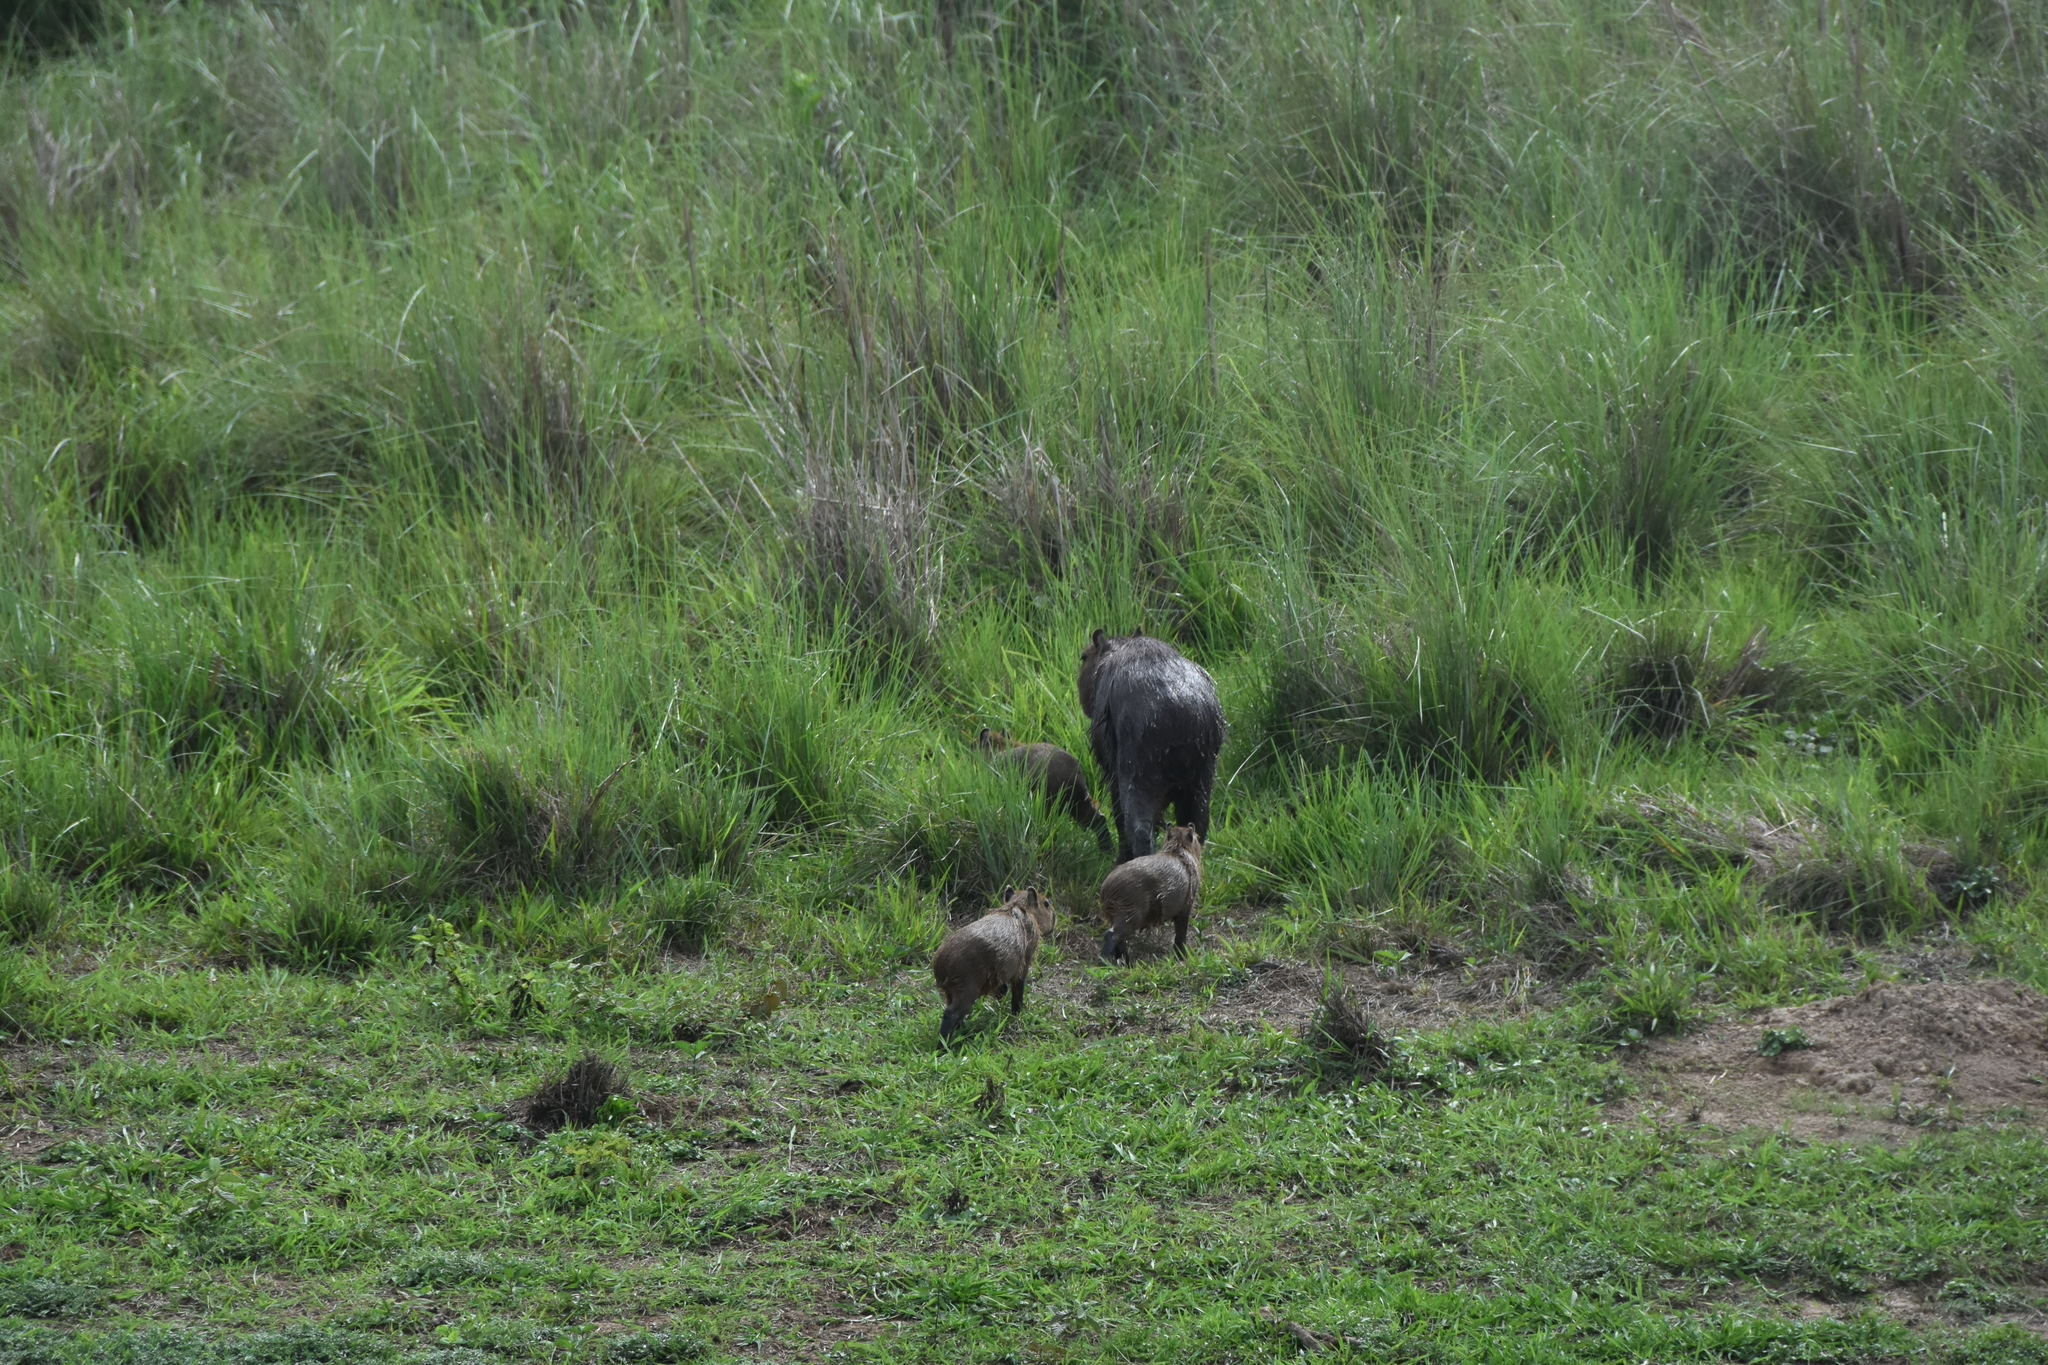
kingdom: Animalia
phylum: Chordata
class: Mammalia
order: Rodentia
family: Caviidae
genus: Hydrochoerus
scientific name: Hydrochoerus hydrochaeris
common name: Capybara
